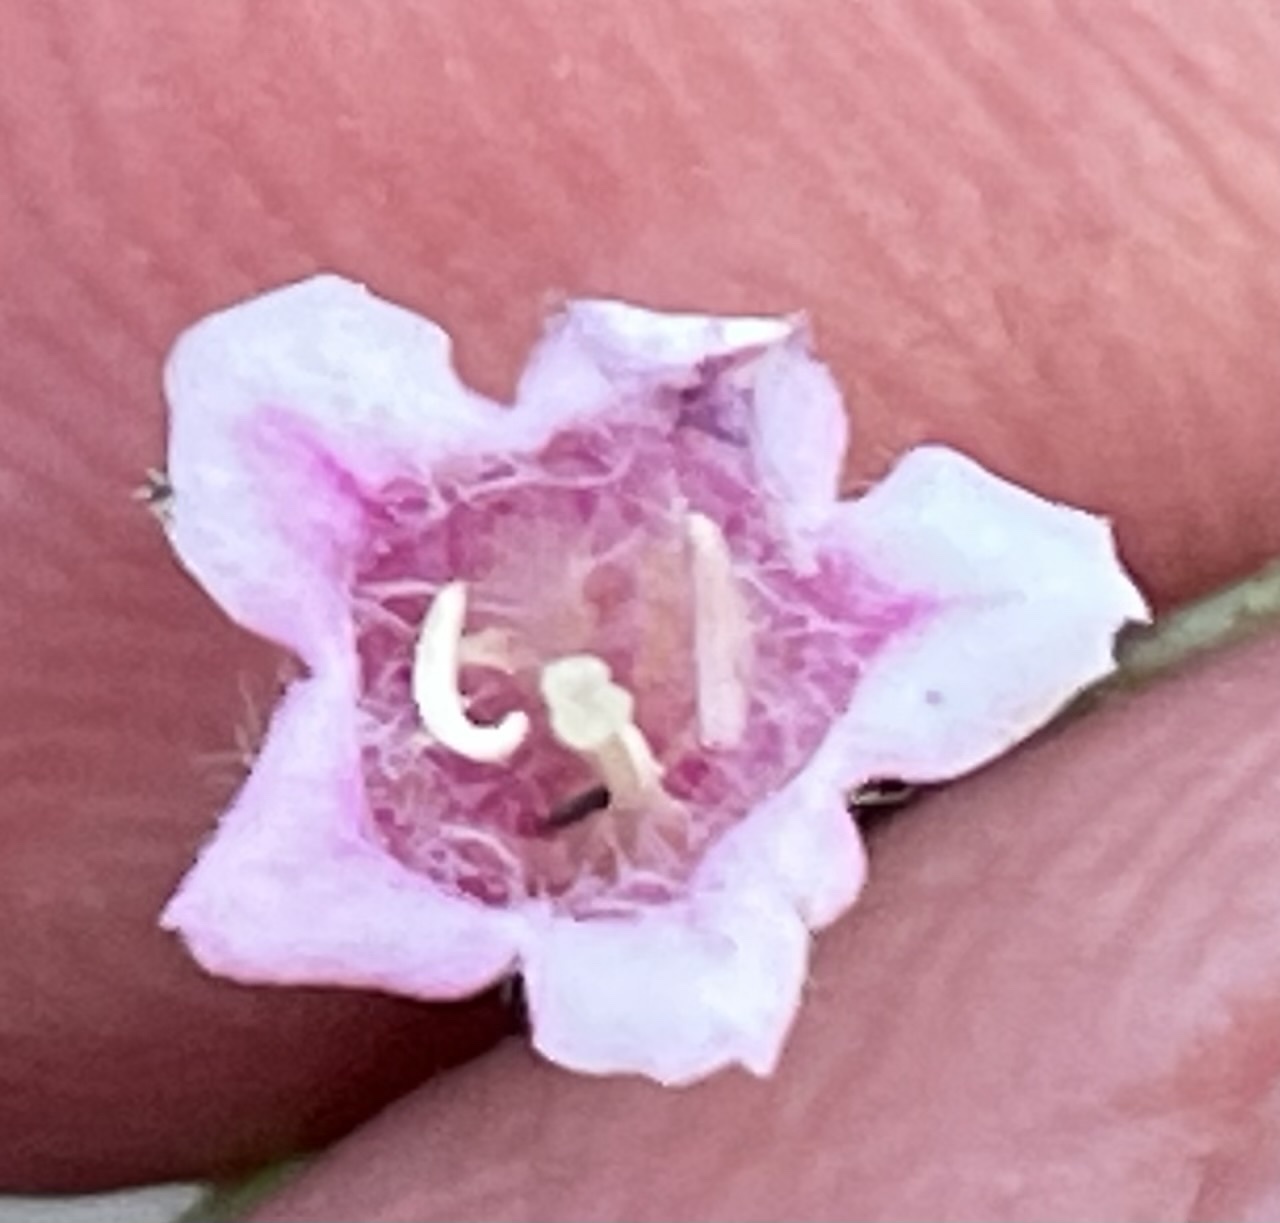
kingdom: Plantae
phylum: Tracheophyta
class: Magnoliopsida
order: Dipsacales
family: Caprifoliaceae
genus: Linnaea
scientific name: Linnaea borealis
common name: Twinflower
